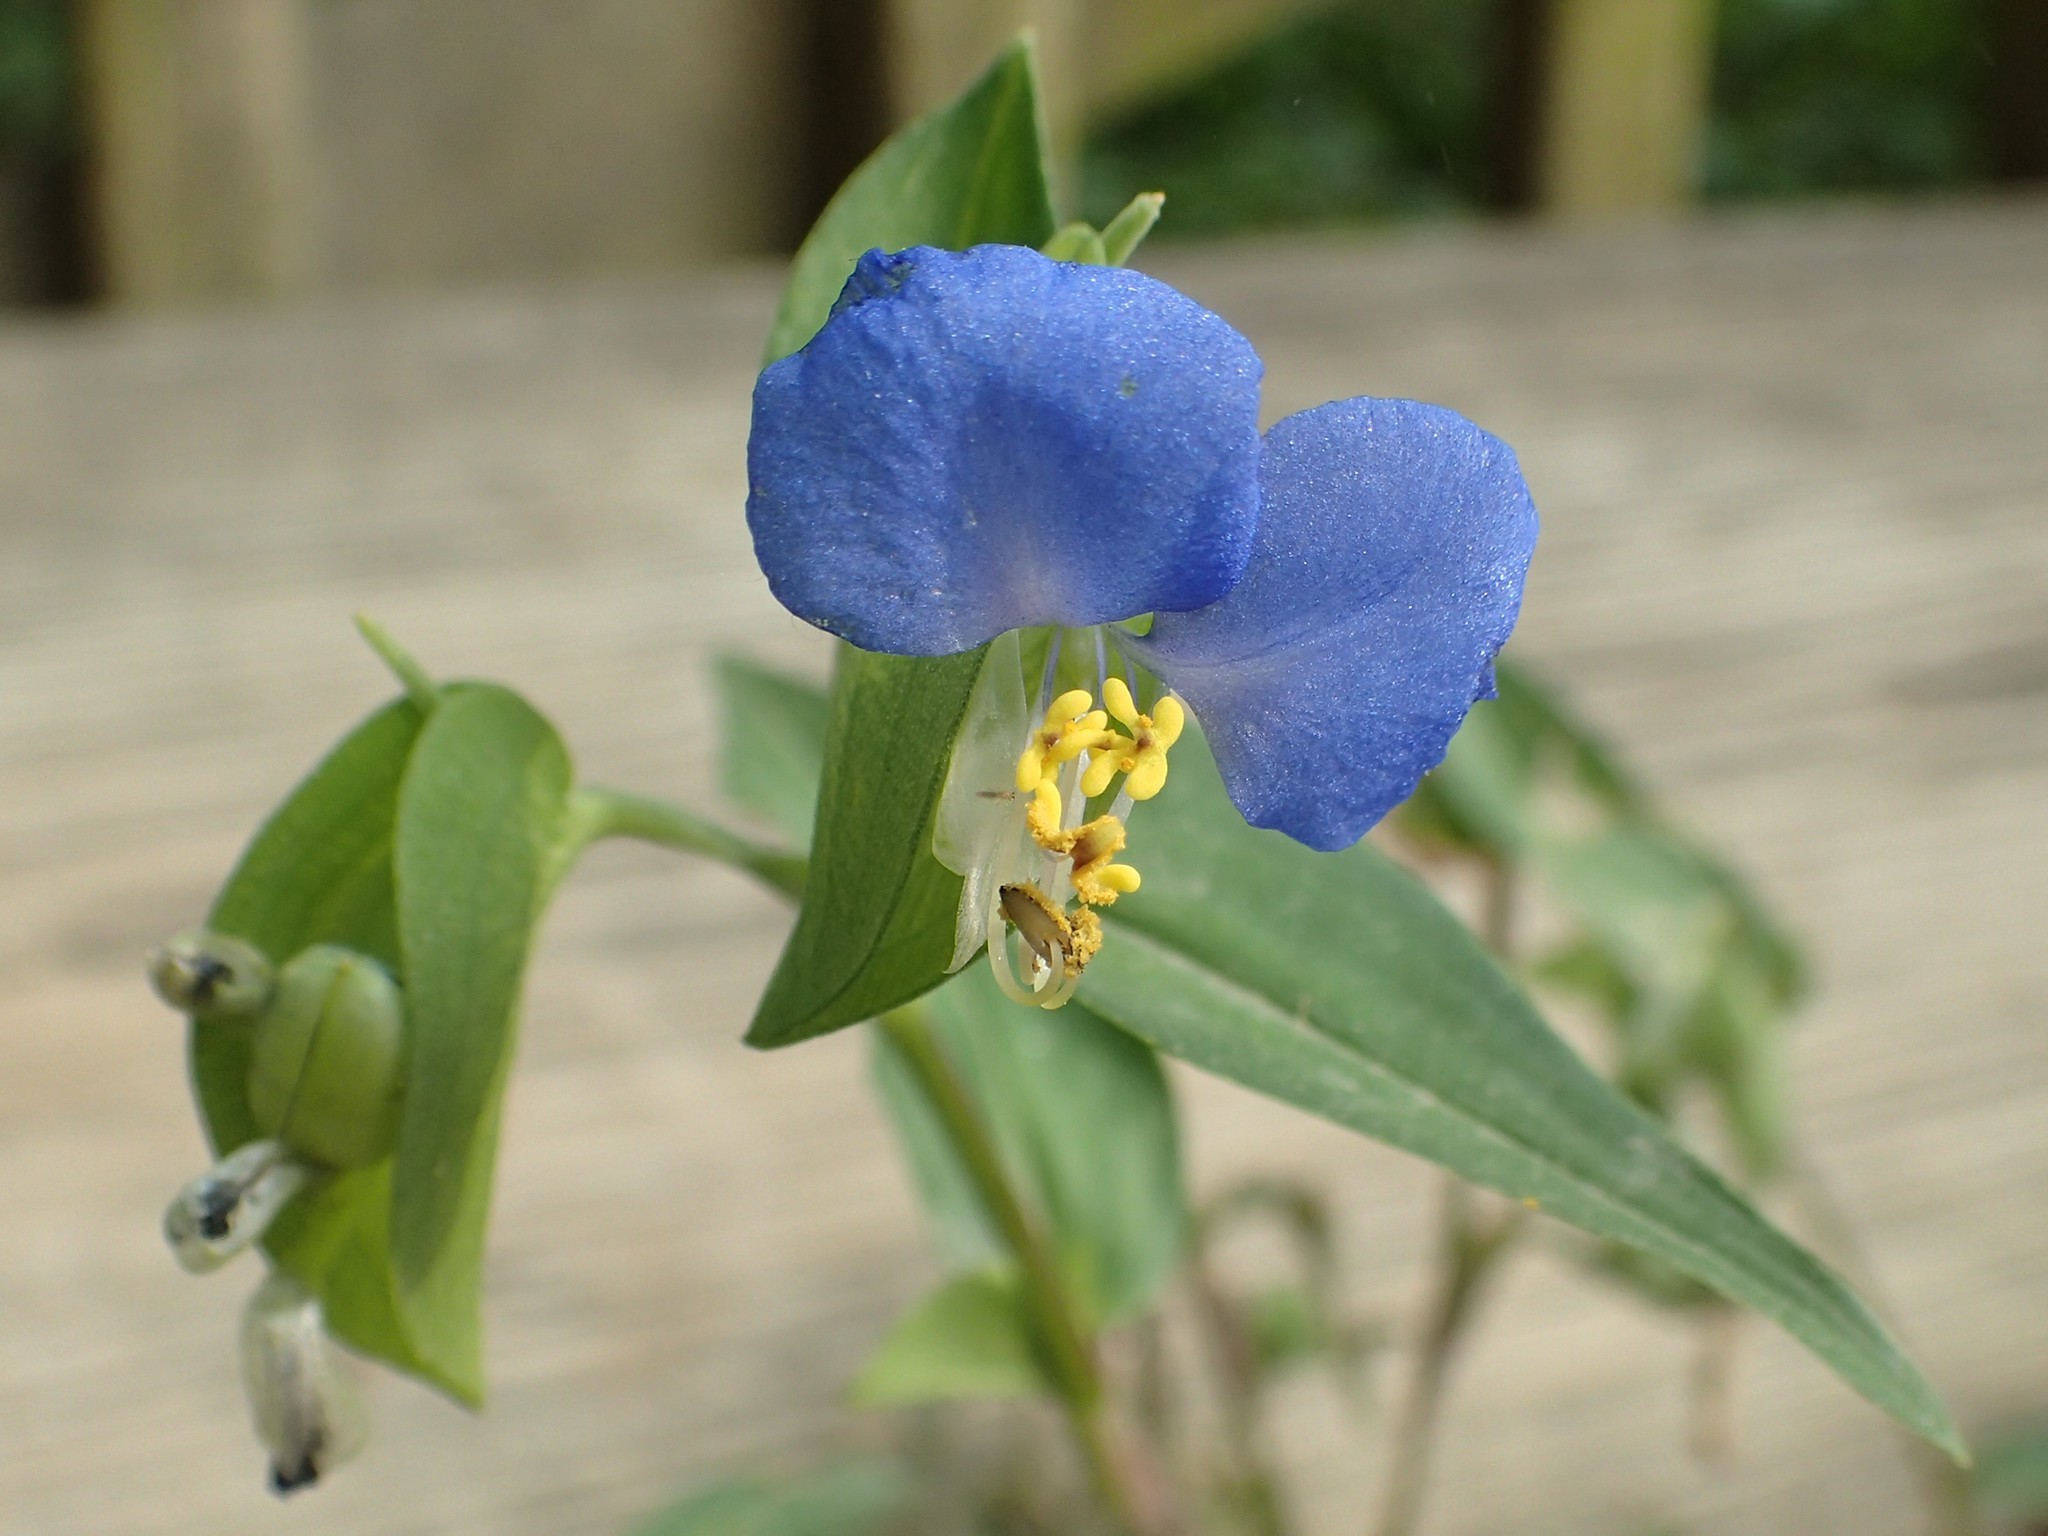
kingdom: Plantae
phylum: Tracheophyta
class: Liliopsida
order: Commelinales
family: Commelinaceae
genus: Commelina
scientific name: Commelina communis
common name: Asiatic dayflower
